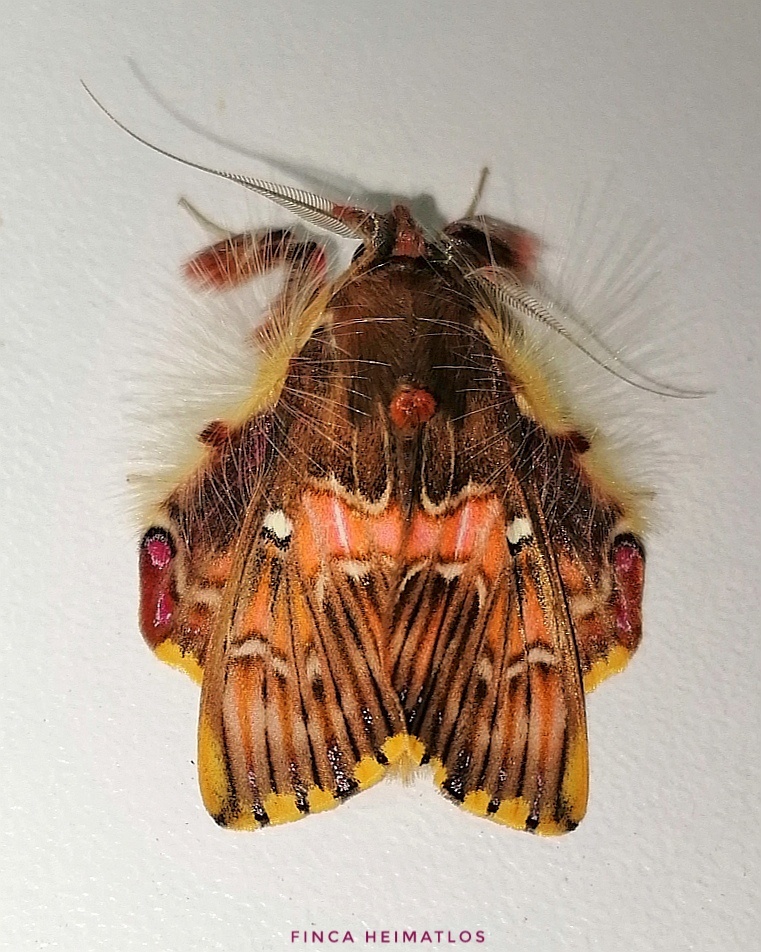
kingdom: Animalia
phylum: Arthropoda
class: Insecta
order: Lepidoptera
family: Erebidae
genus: Sosxetra
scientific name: Sosxetra grata
